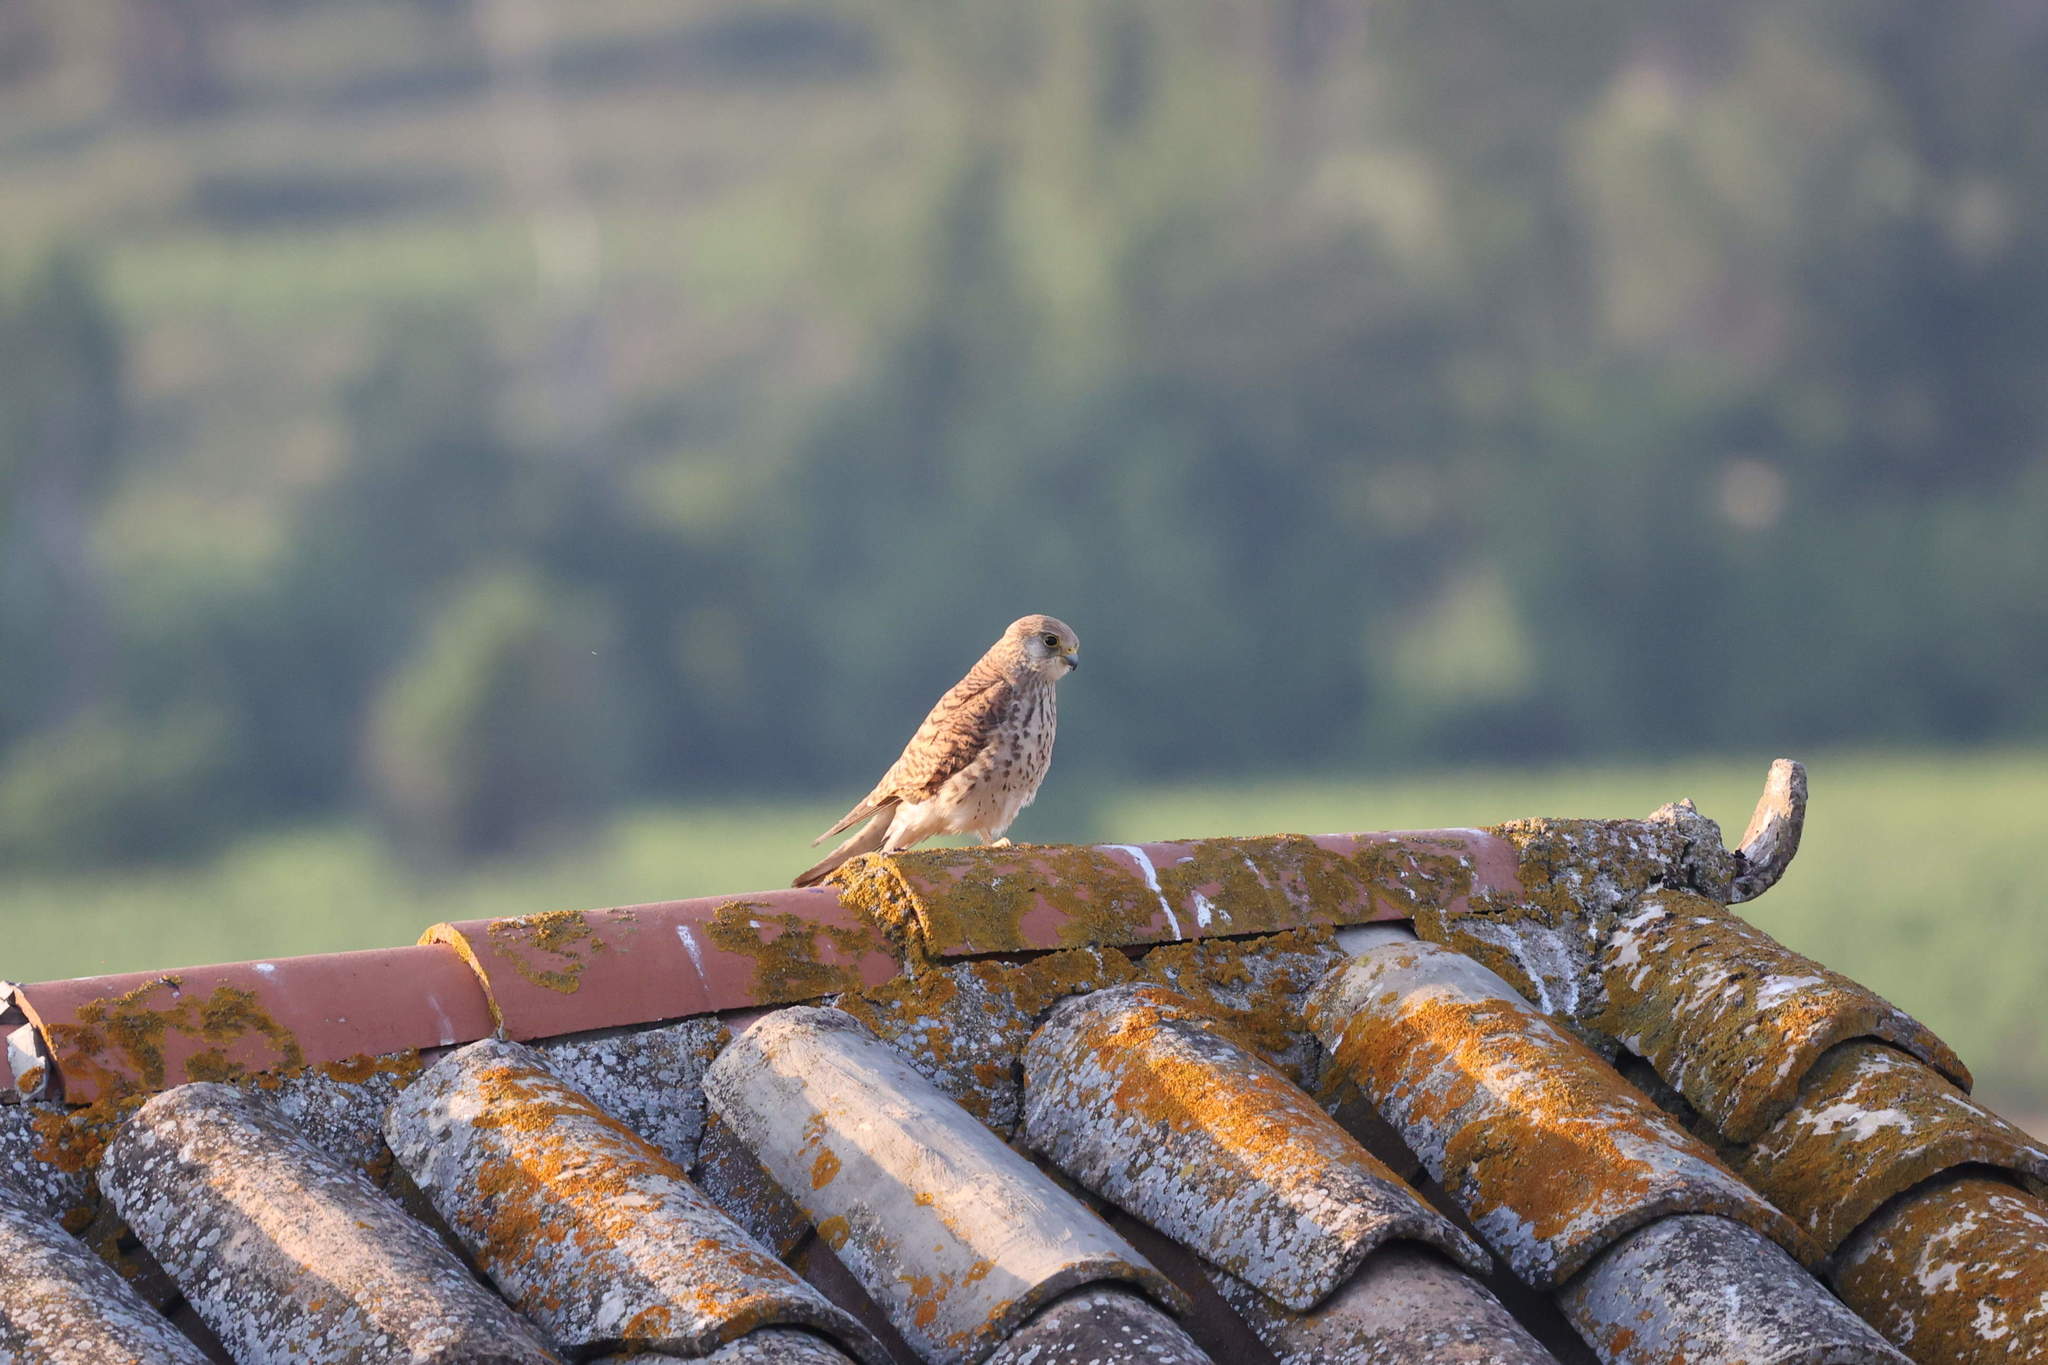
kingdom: Animalia
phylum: Chordata
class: Aves
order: Falconiformes
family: Falconidae
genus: Falco
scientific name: Falco naumanni
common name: Lesser kestrel
